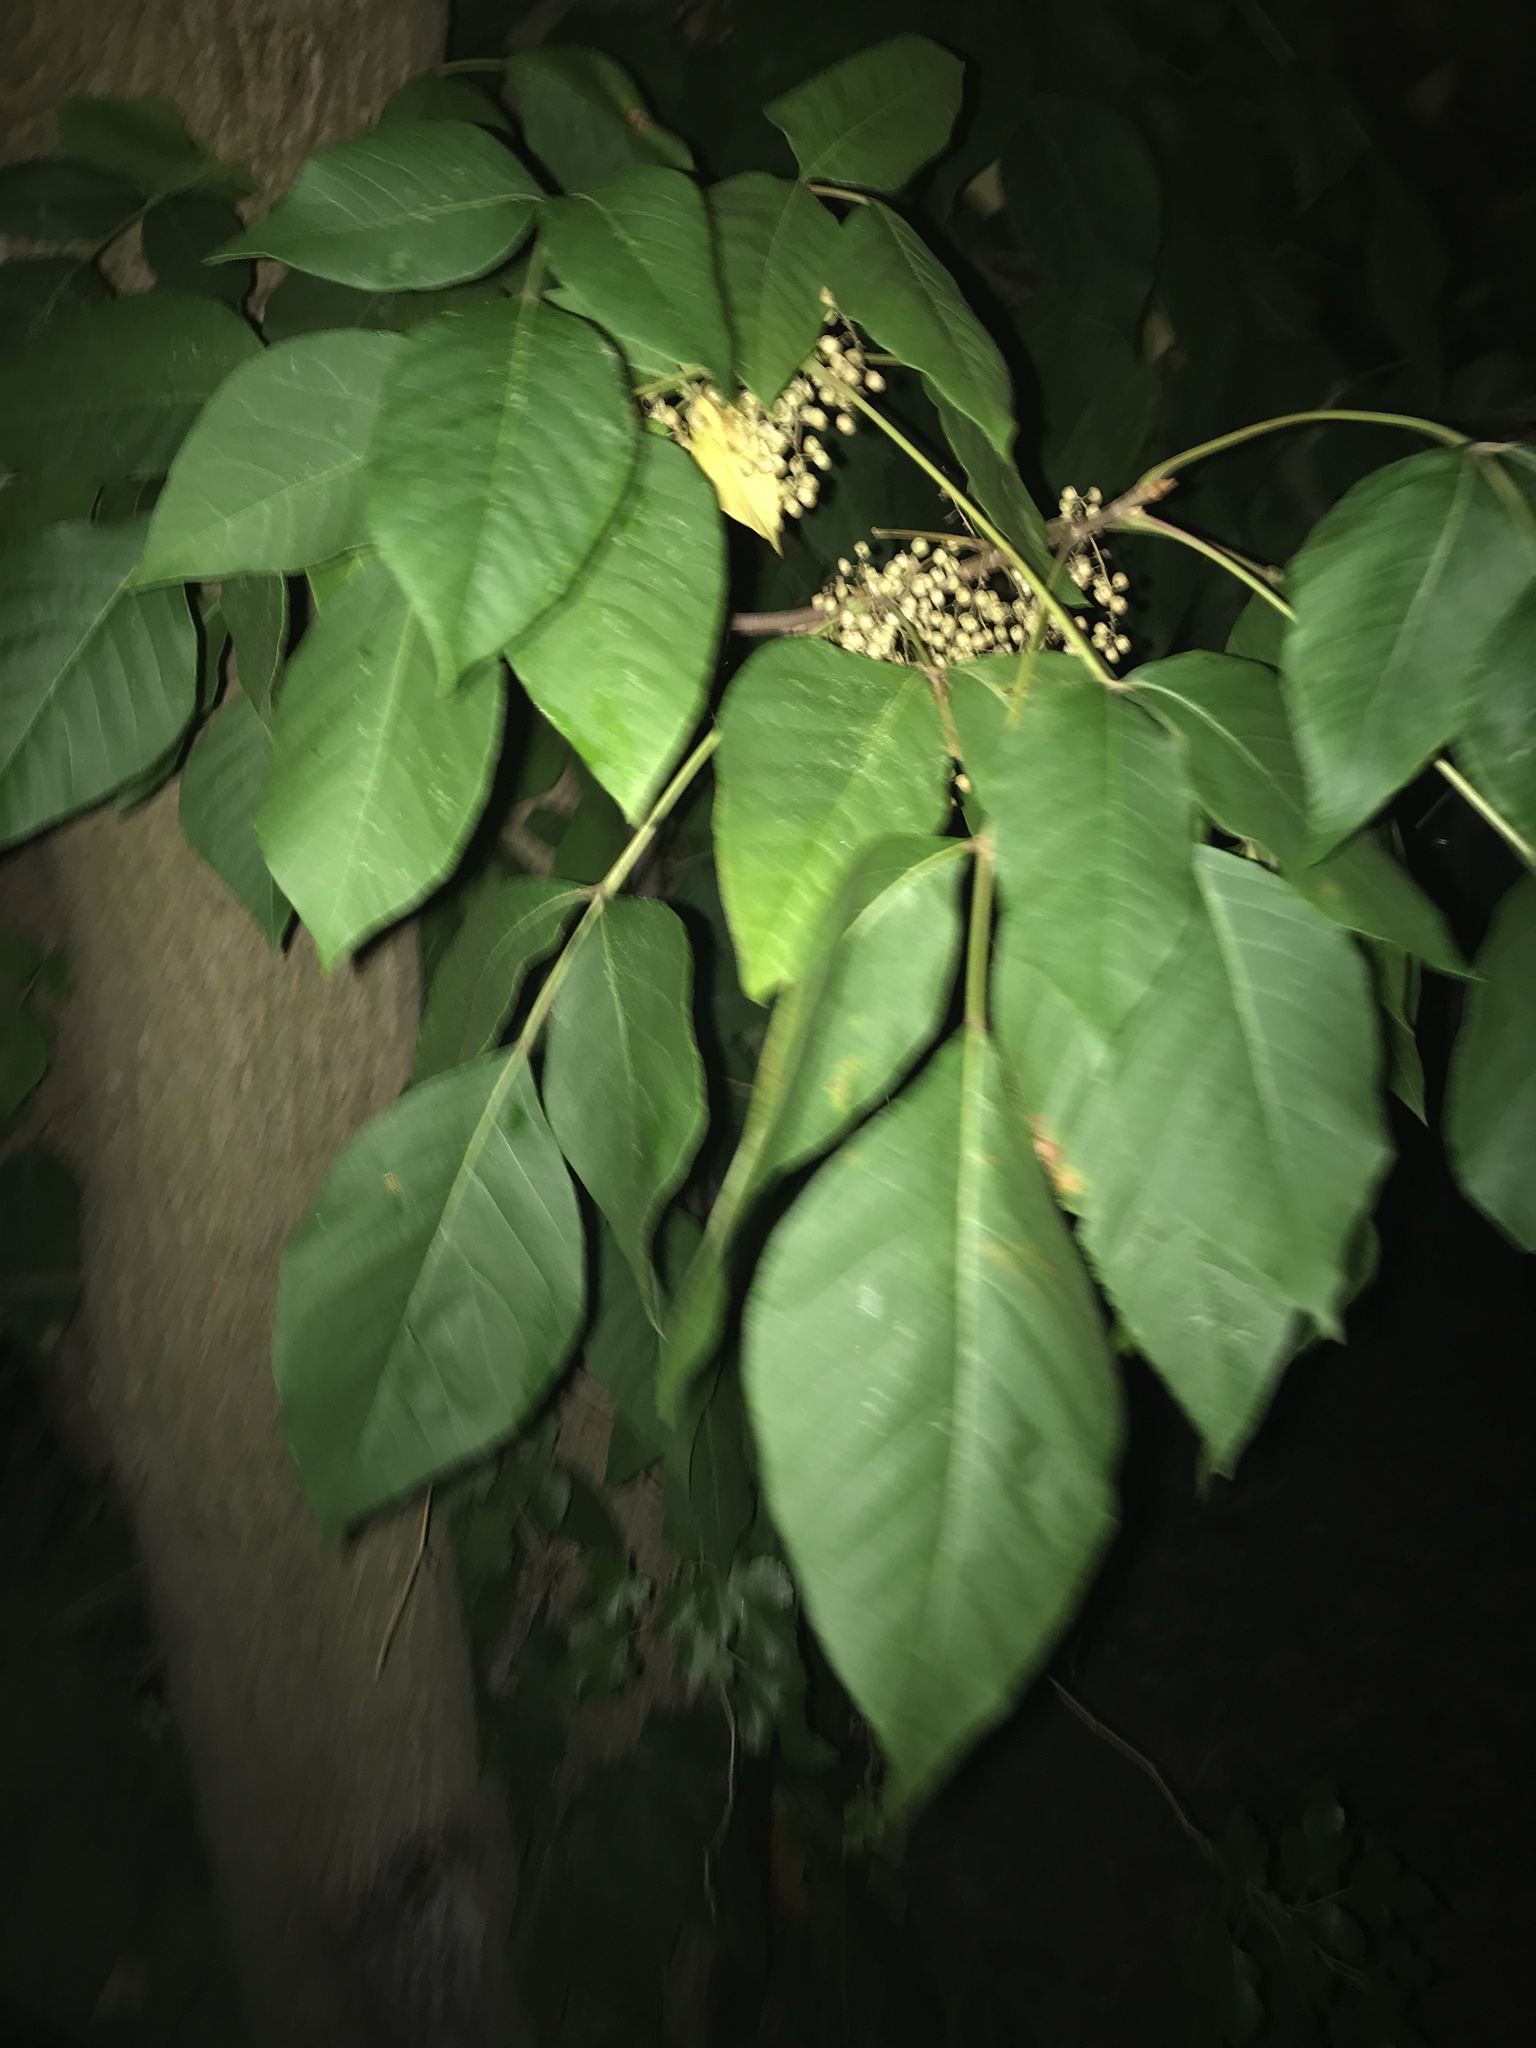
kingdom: Plantae
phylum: Tracheophyta
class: Magnoliopsida
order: Sapindales
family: Rutaceae
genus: Ptelea
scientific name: Ptelea trifoliata
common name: Common hop-tree
